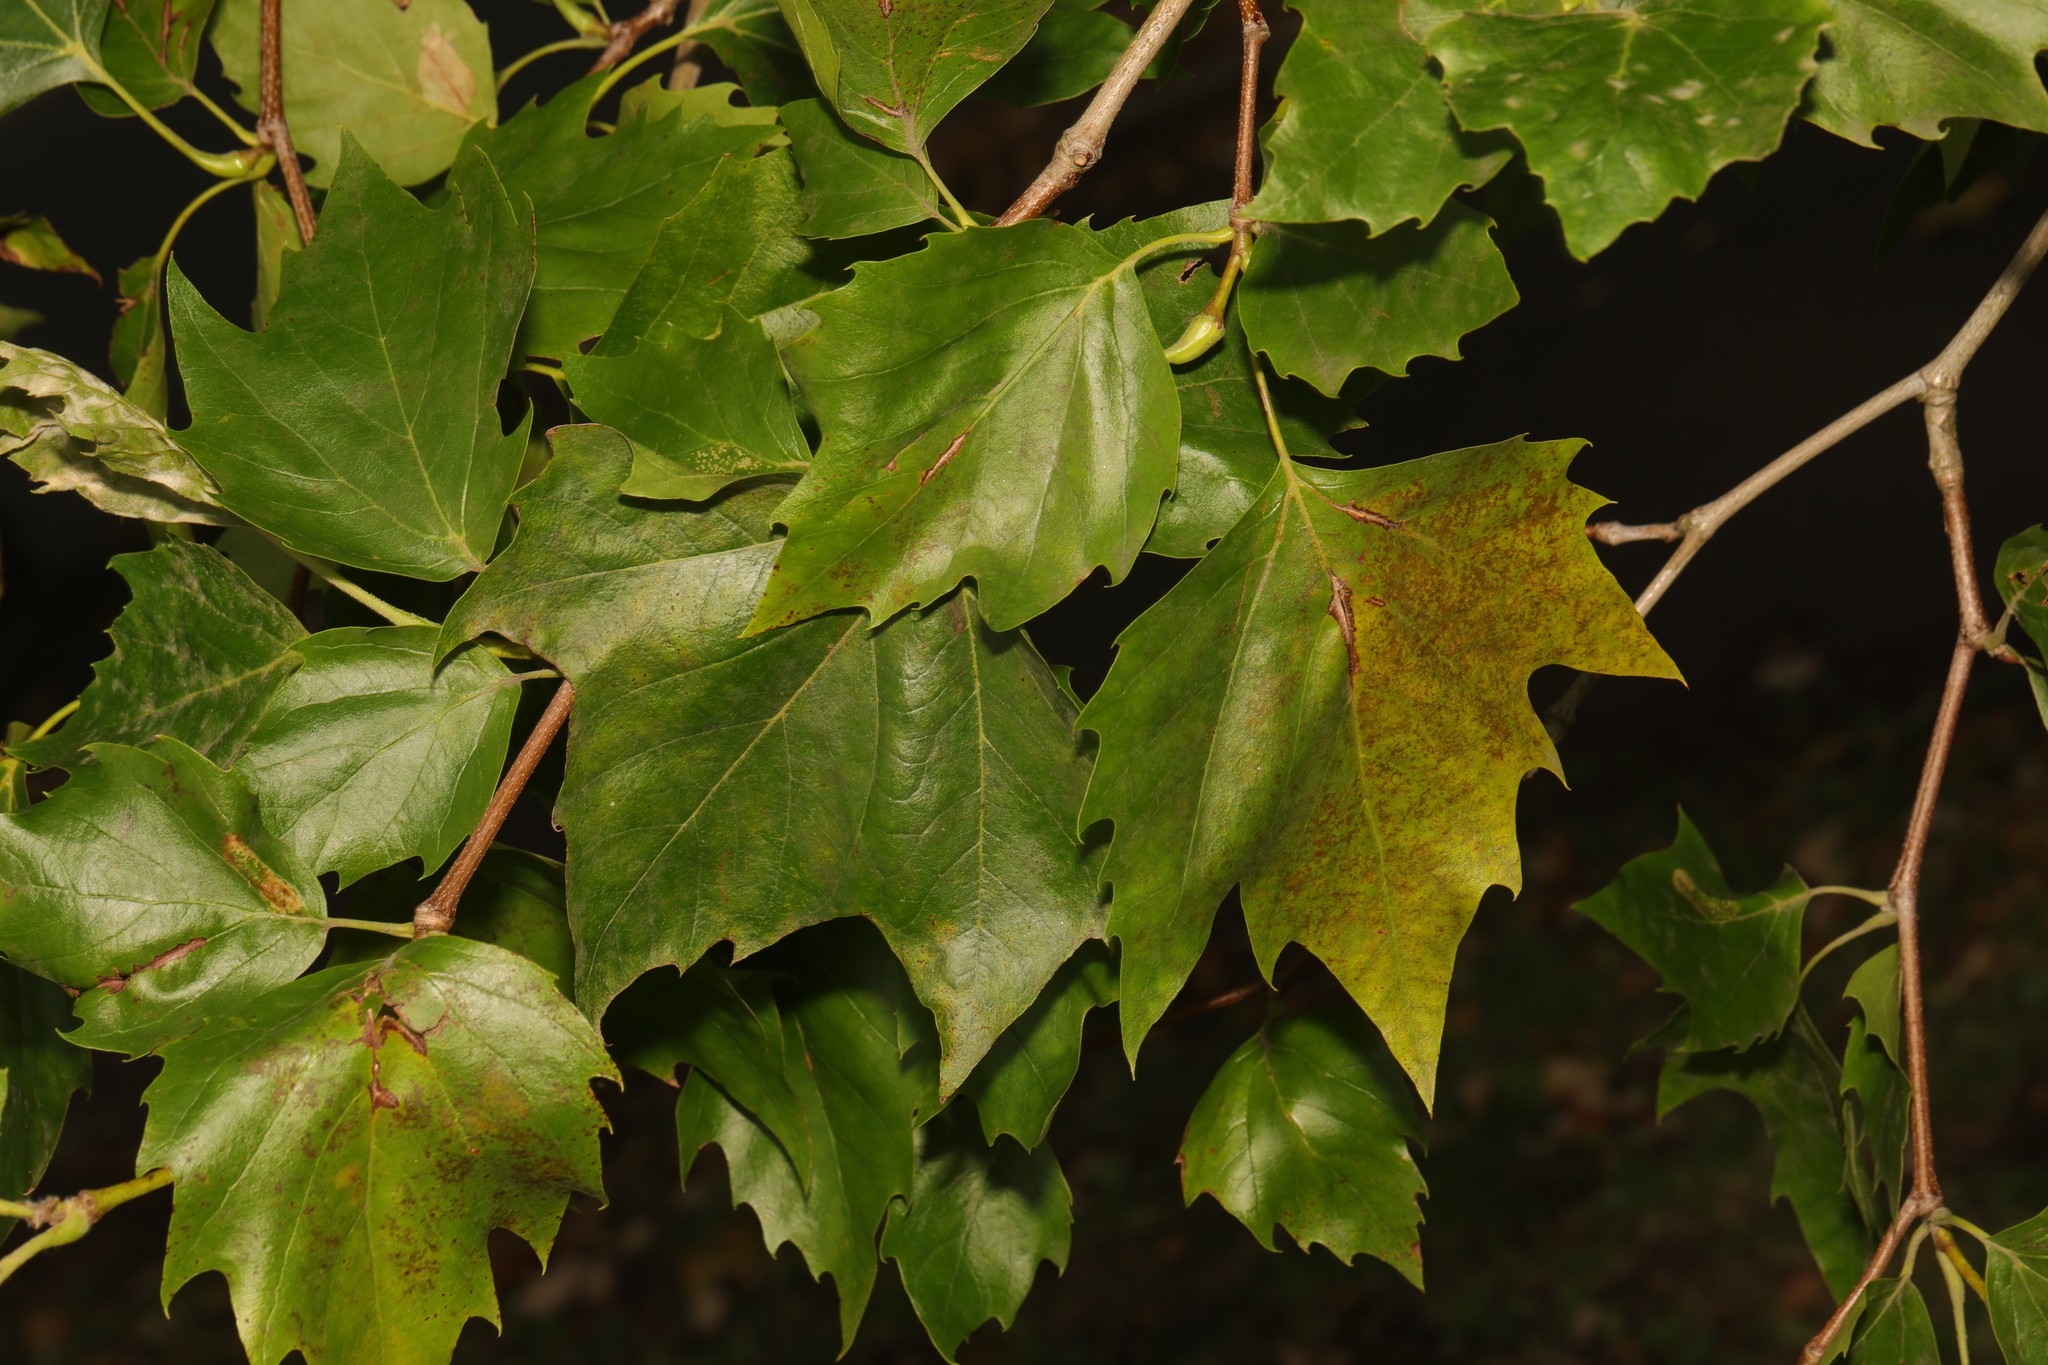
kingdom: Plantae
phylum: Tracheophyta
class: Magnoliopsida
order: Proteales
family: Platanaceae
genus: Platanus
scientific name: Platanus hispanica
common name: London plane
